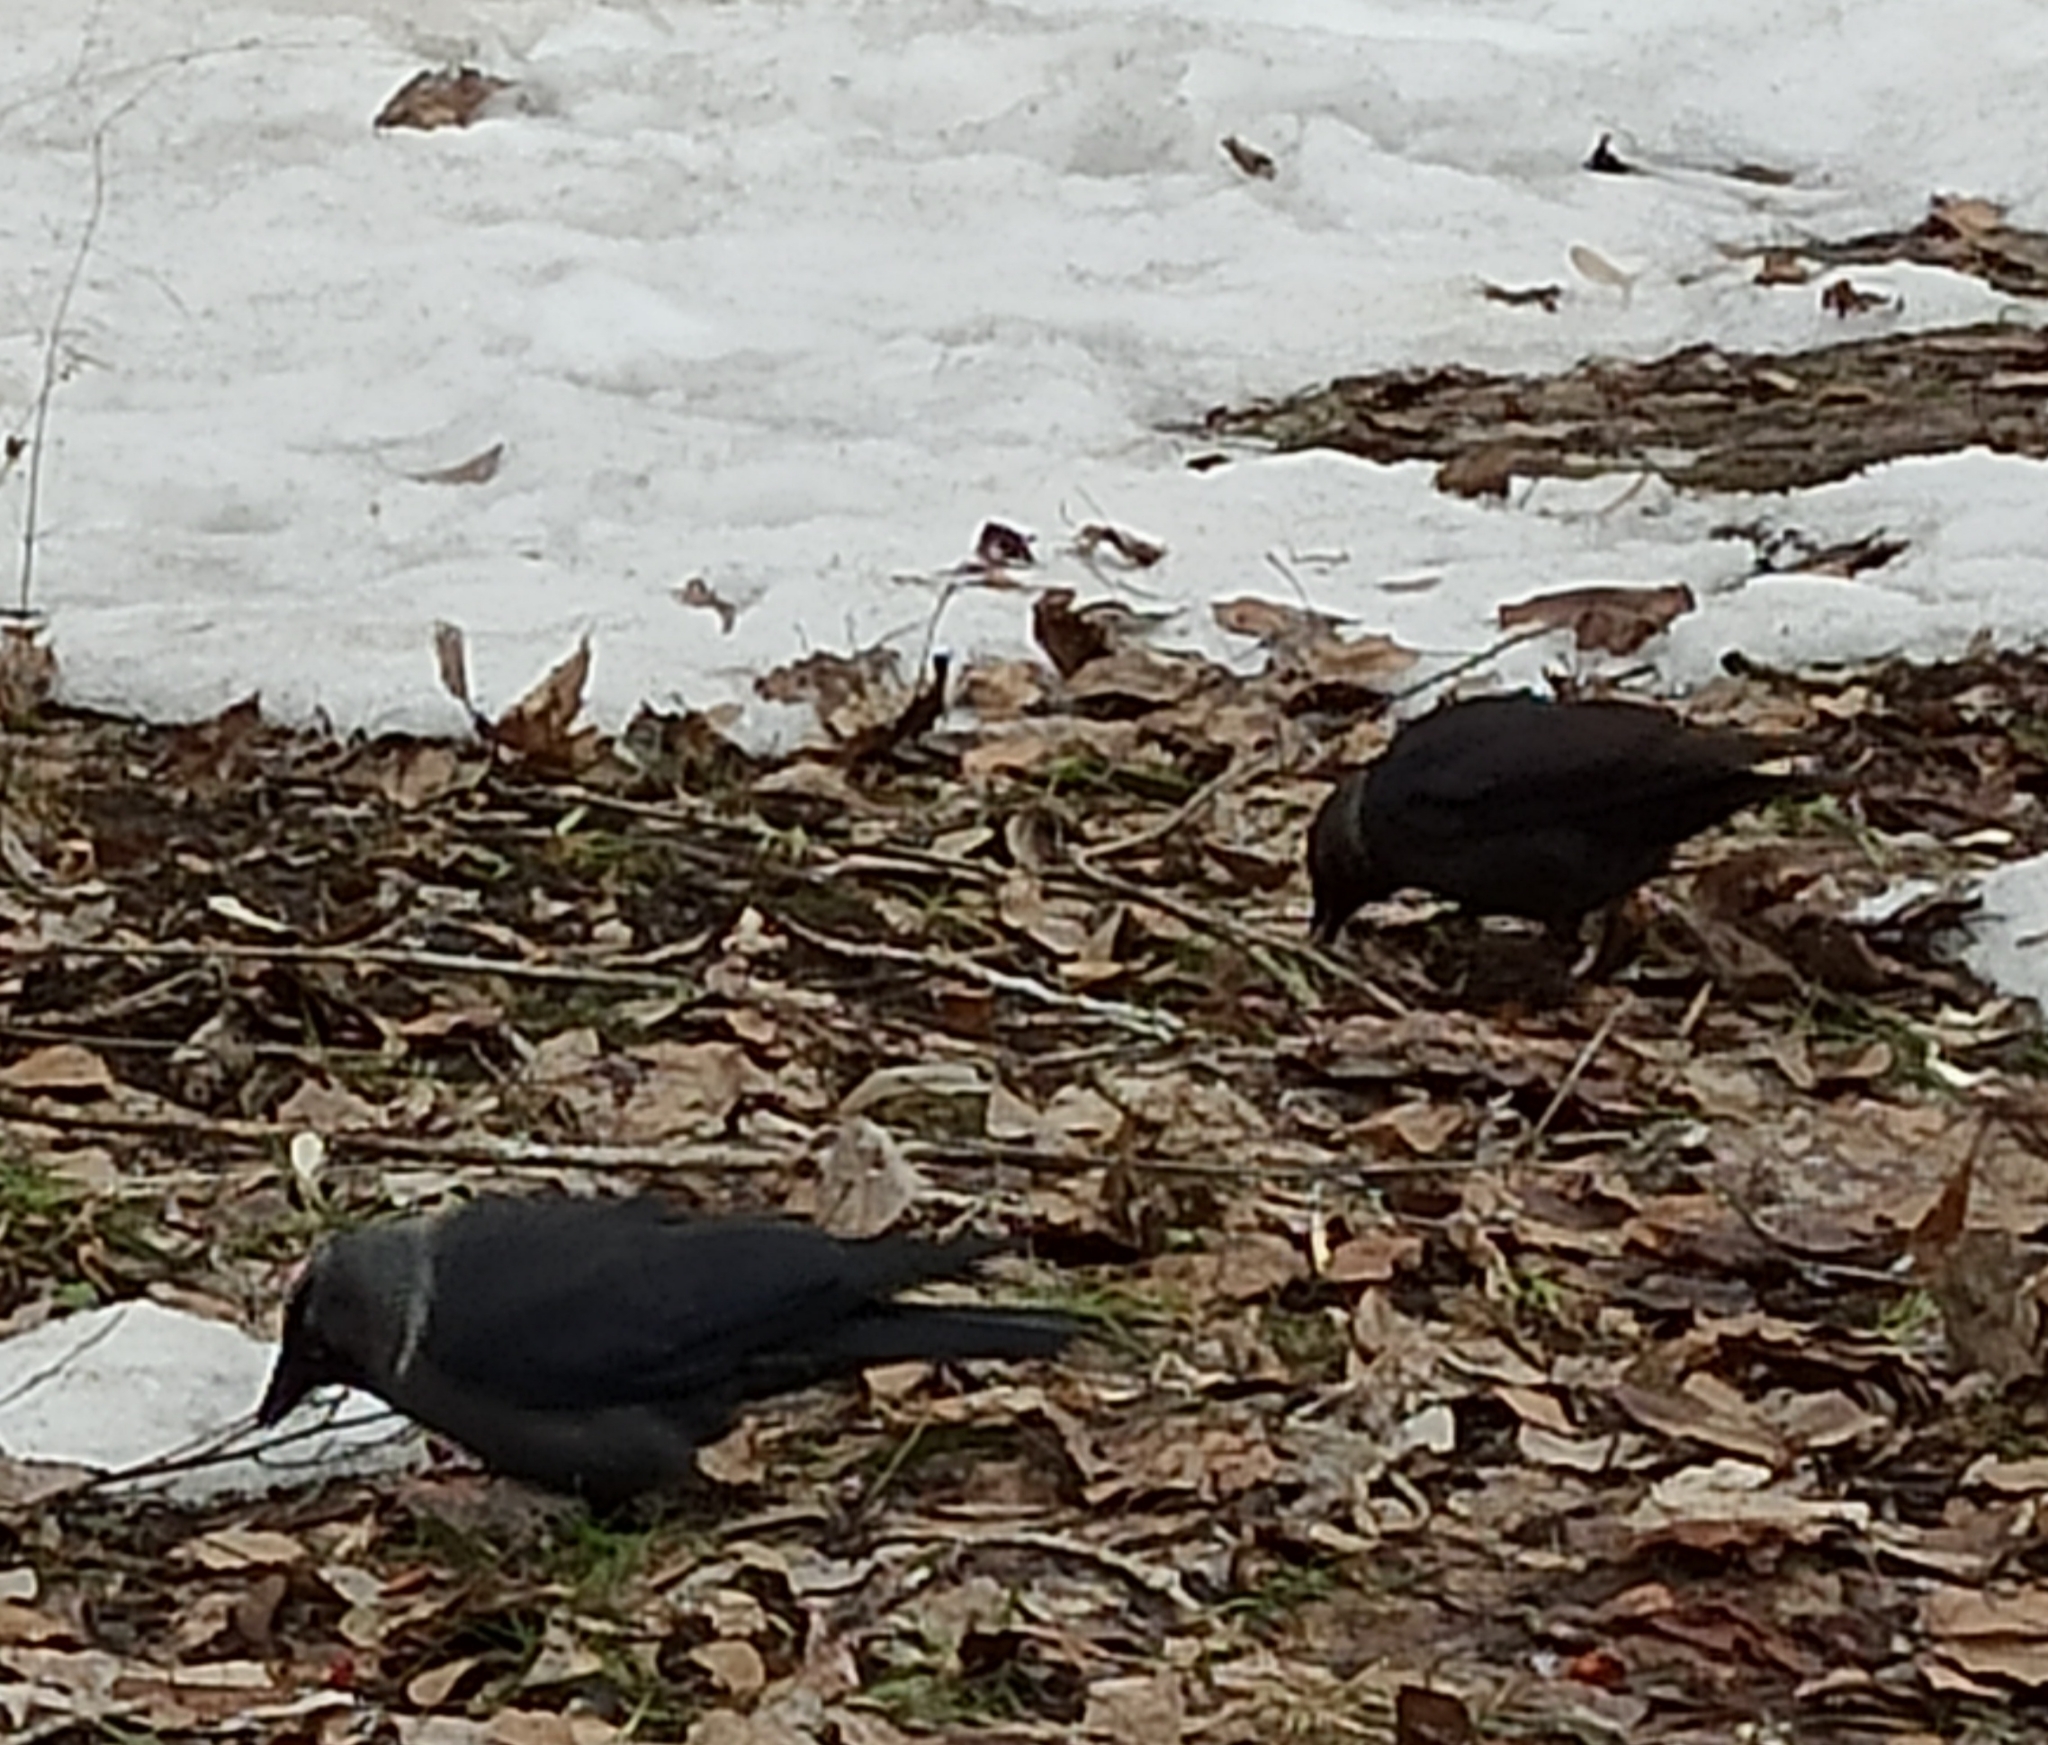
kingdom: Animalia
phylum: Chordata
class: Aves
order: Passeriformes
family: Corvidae
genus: Coloeus
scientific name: Coloeus monedula
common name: Western jackdaw
